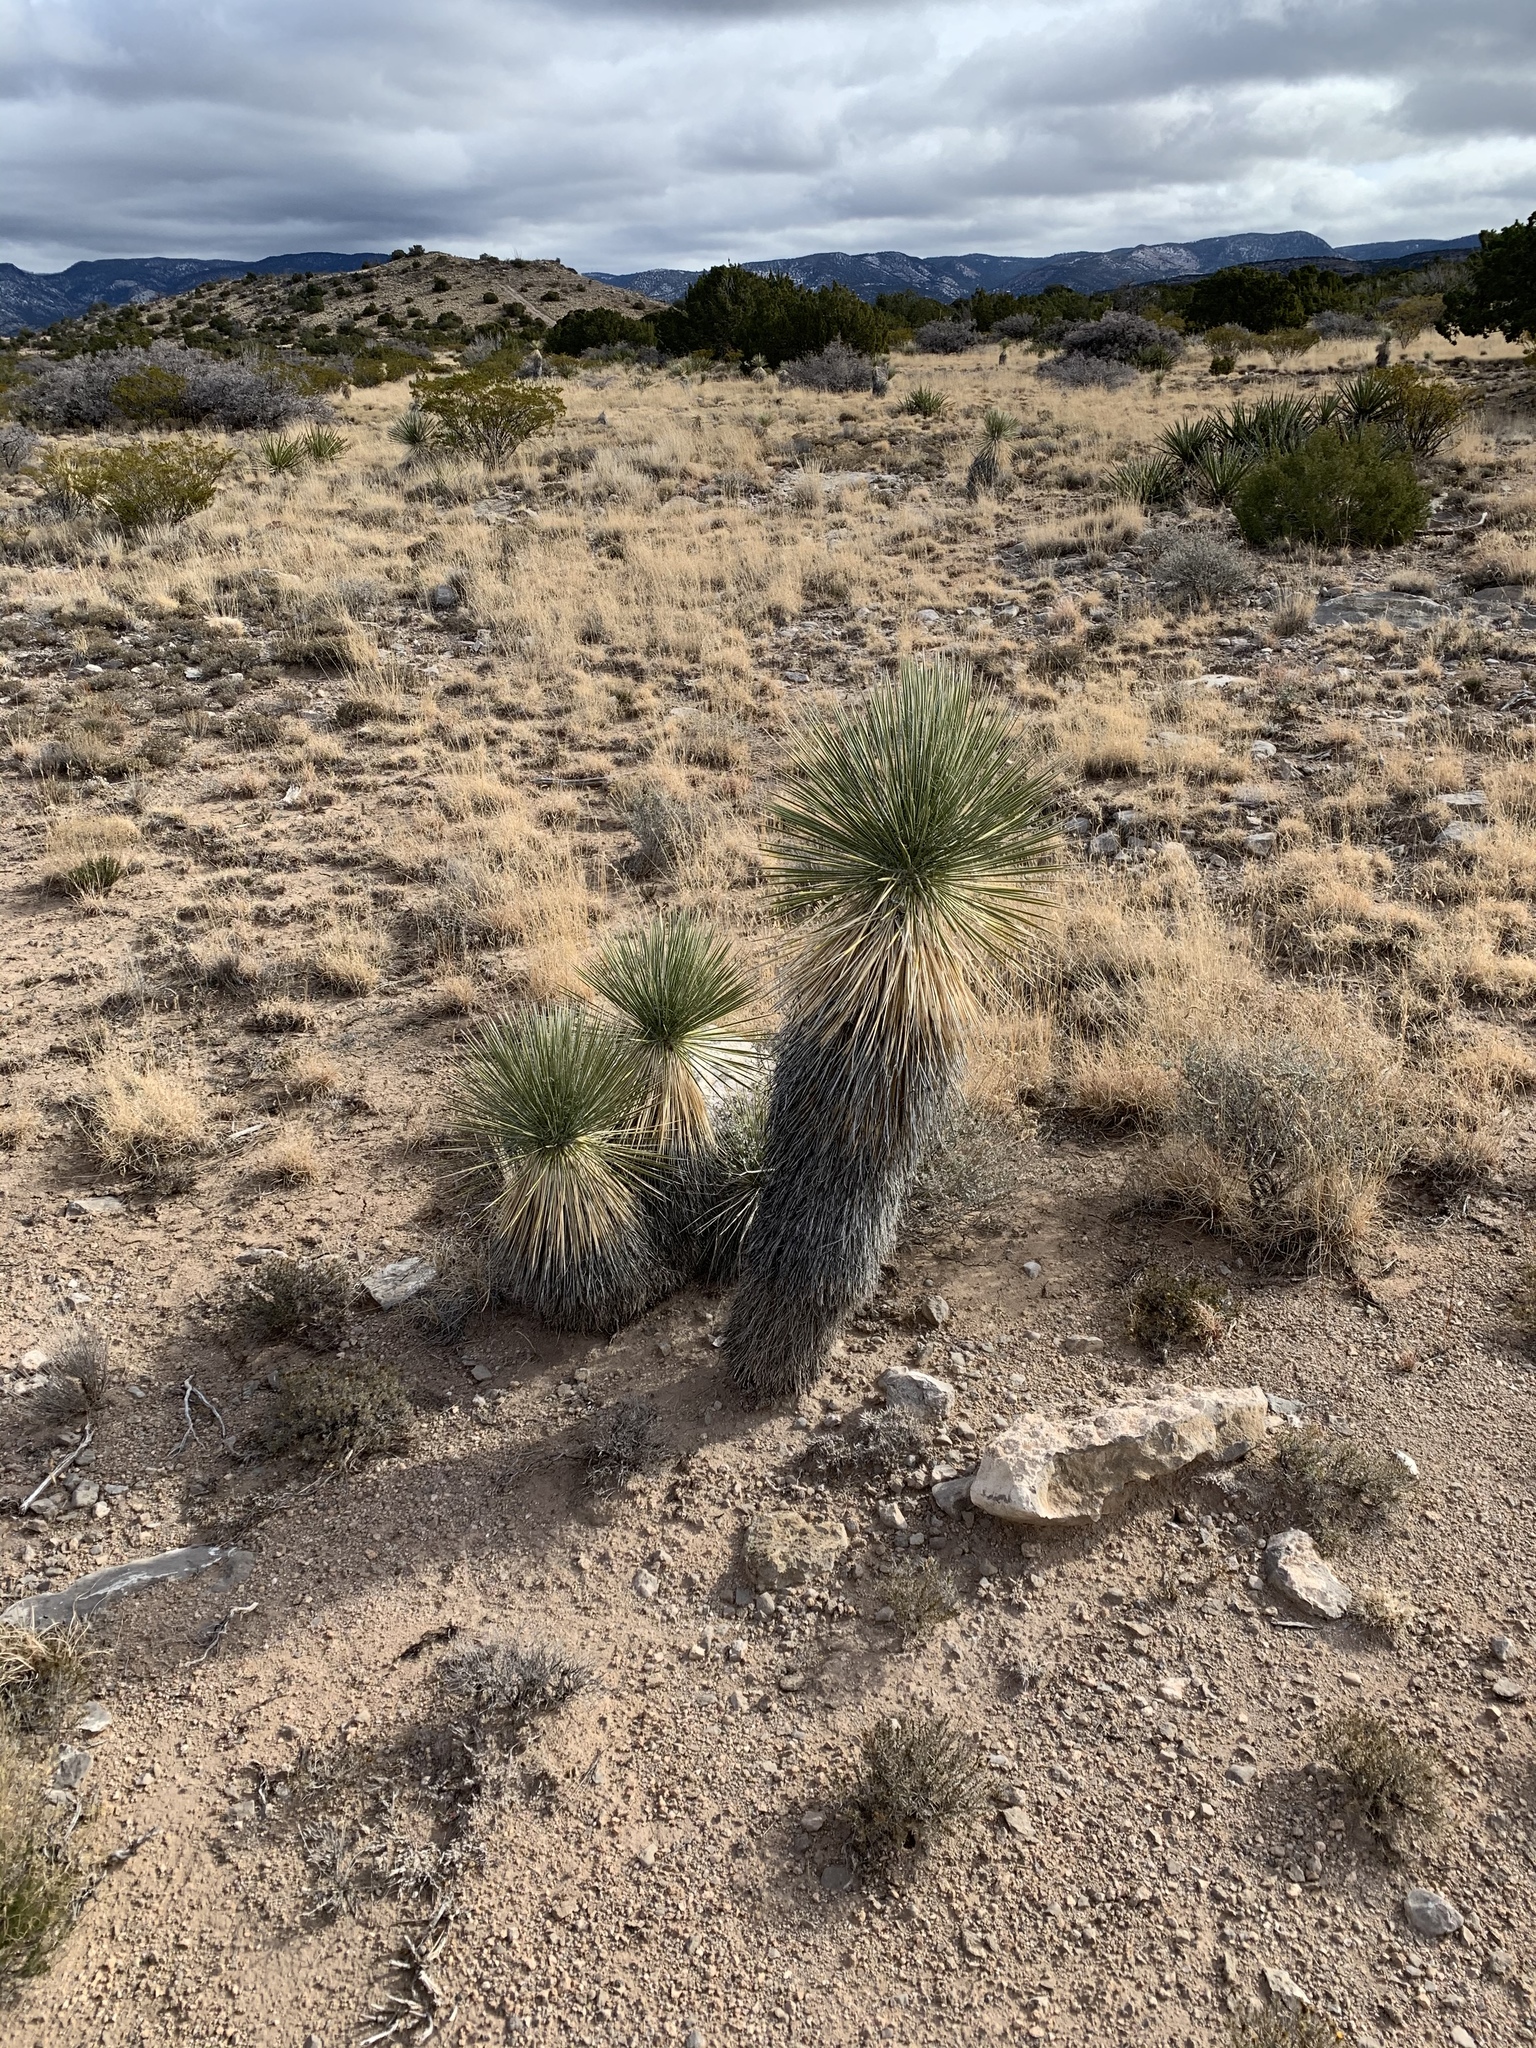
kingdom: Plantae
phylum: Tracheophyta
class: Liliopsida
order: Asparagales
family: Asparagaceae
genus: Yucca
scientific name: Yucca elata
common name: Palmella
